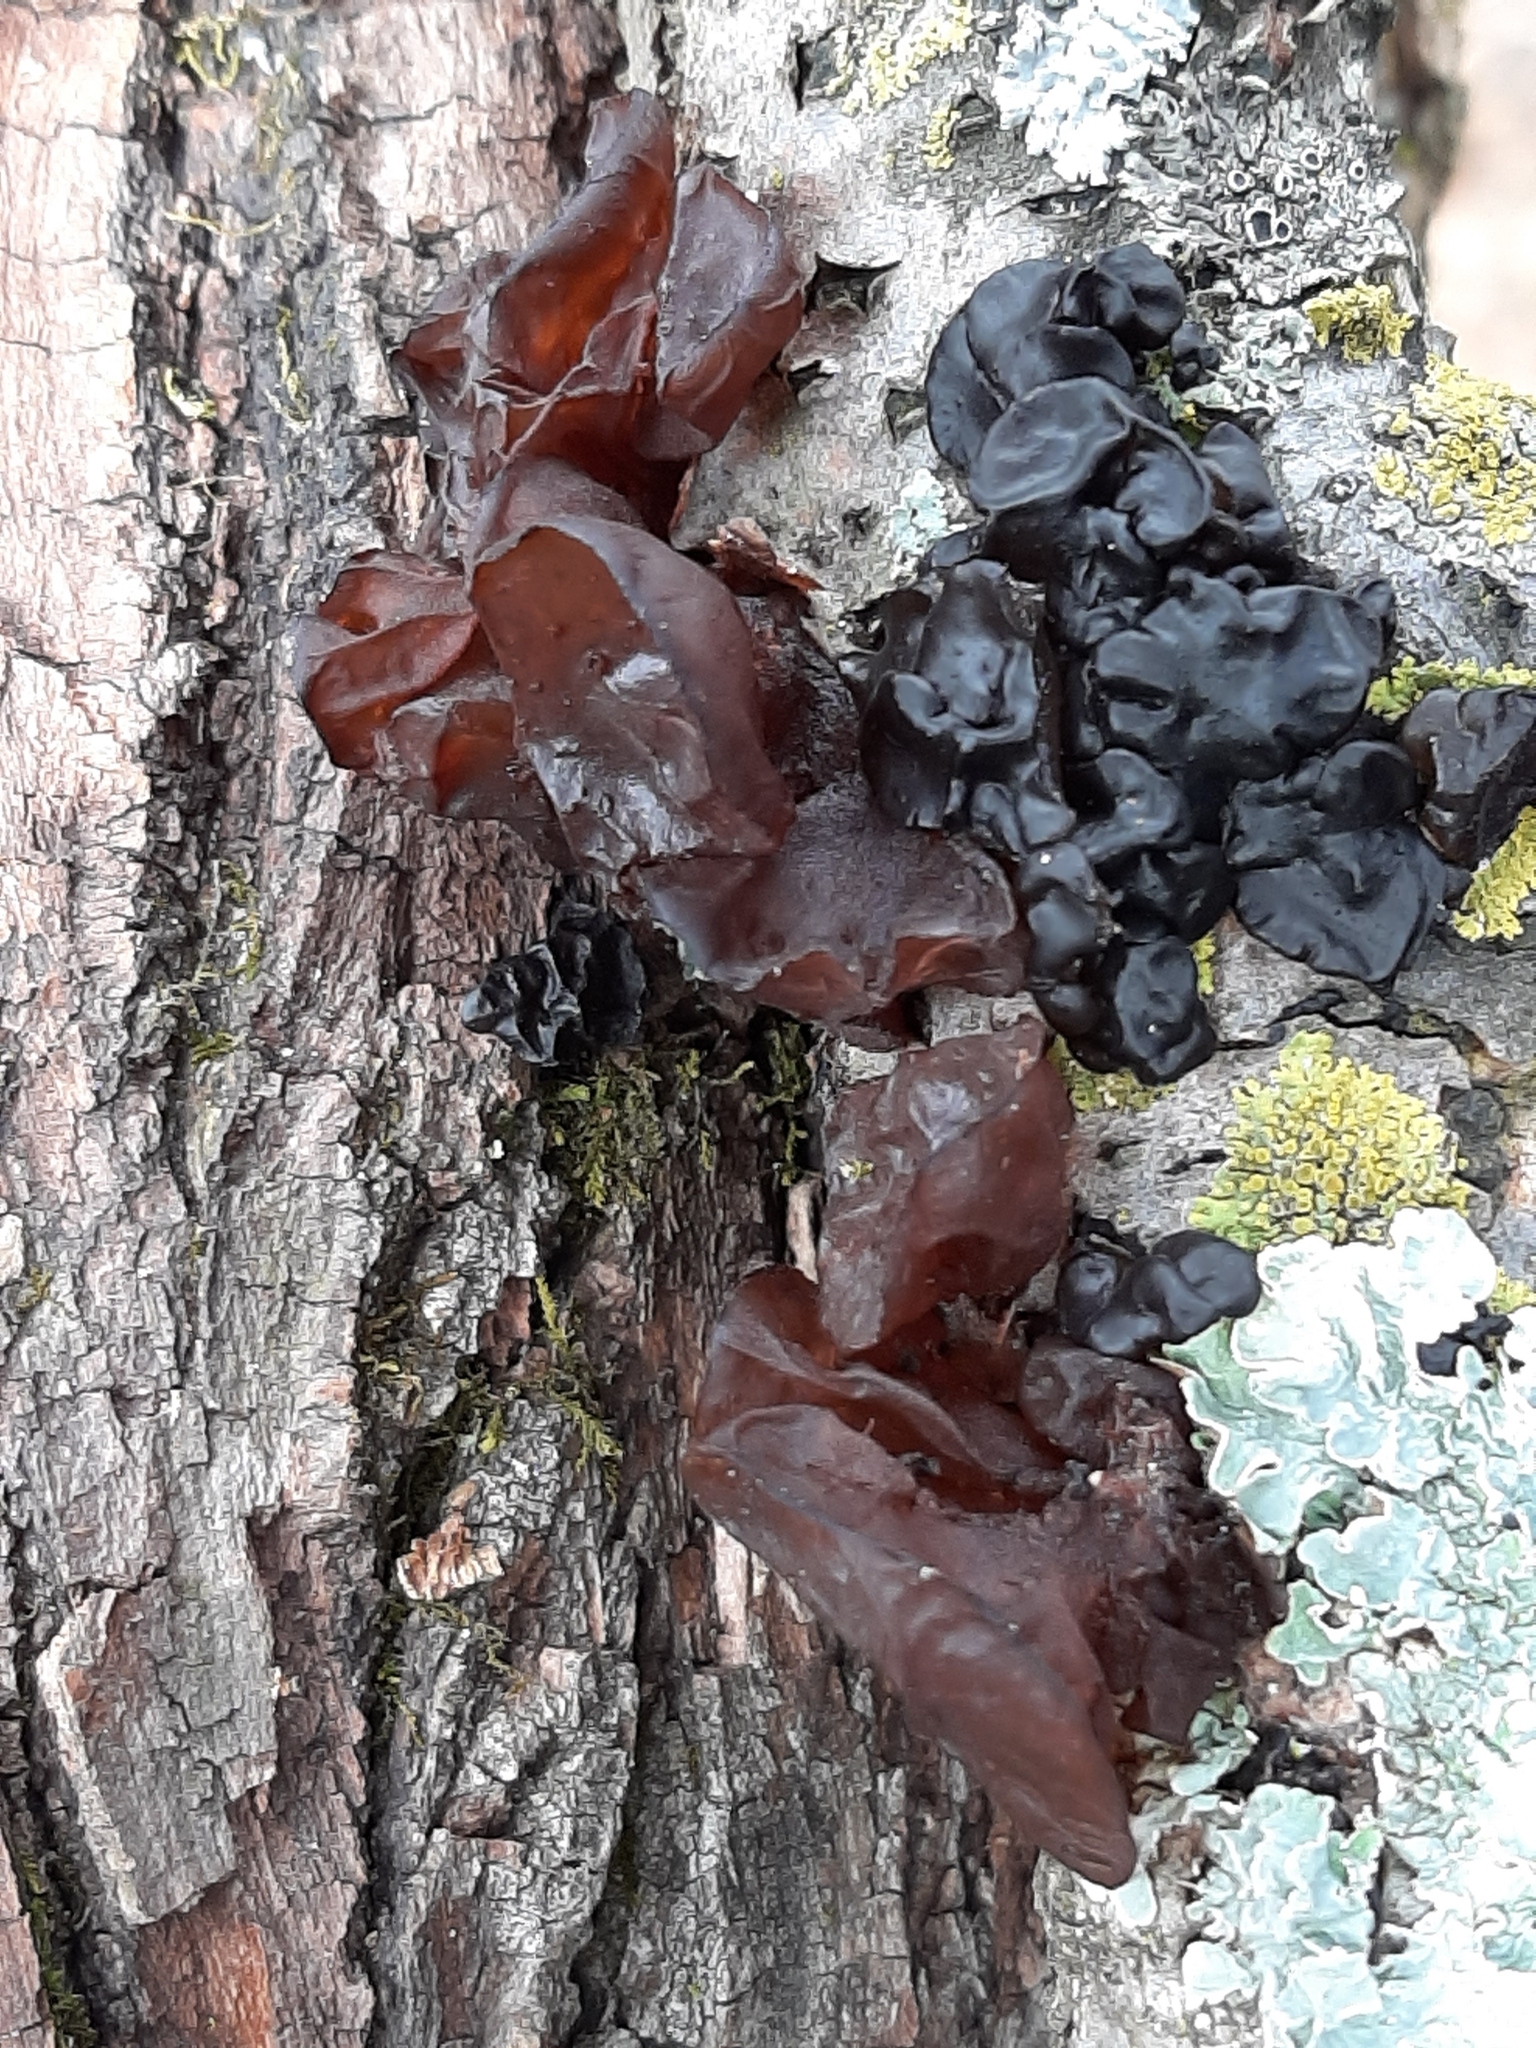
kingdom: Fungi
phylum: Basidiomycota
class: Agaricomycetes
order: Auriculariales
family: Auriculariaceae
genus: Exidia
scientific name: Exidia
